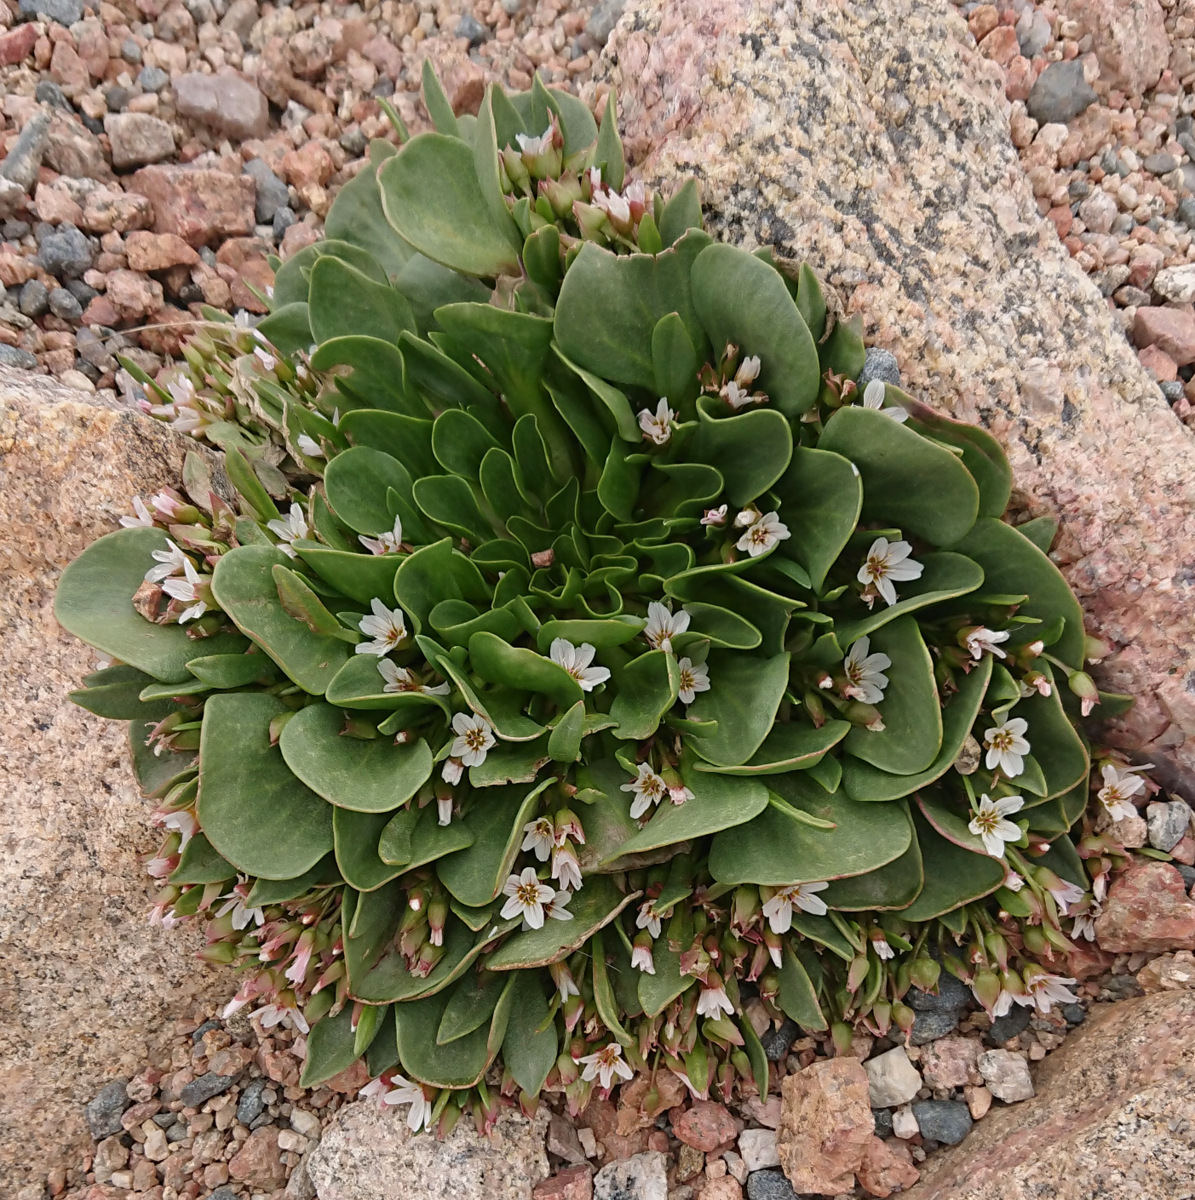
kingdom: Plantae
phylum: Tracheophyta
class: Magnoliopsida
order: Caryophyllales
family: Montiaceae
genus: Claytonia
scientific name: Claytonia megarhiza
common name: Alpine spring beauty
